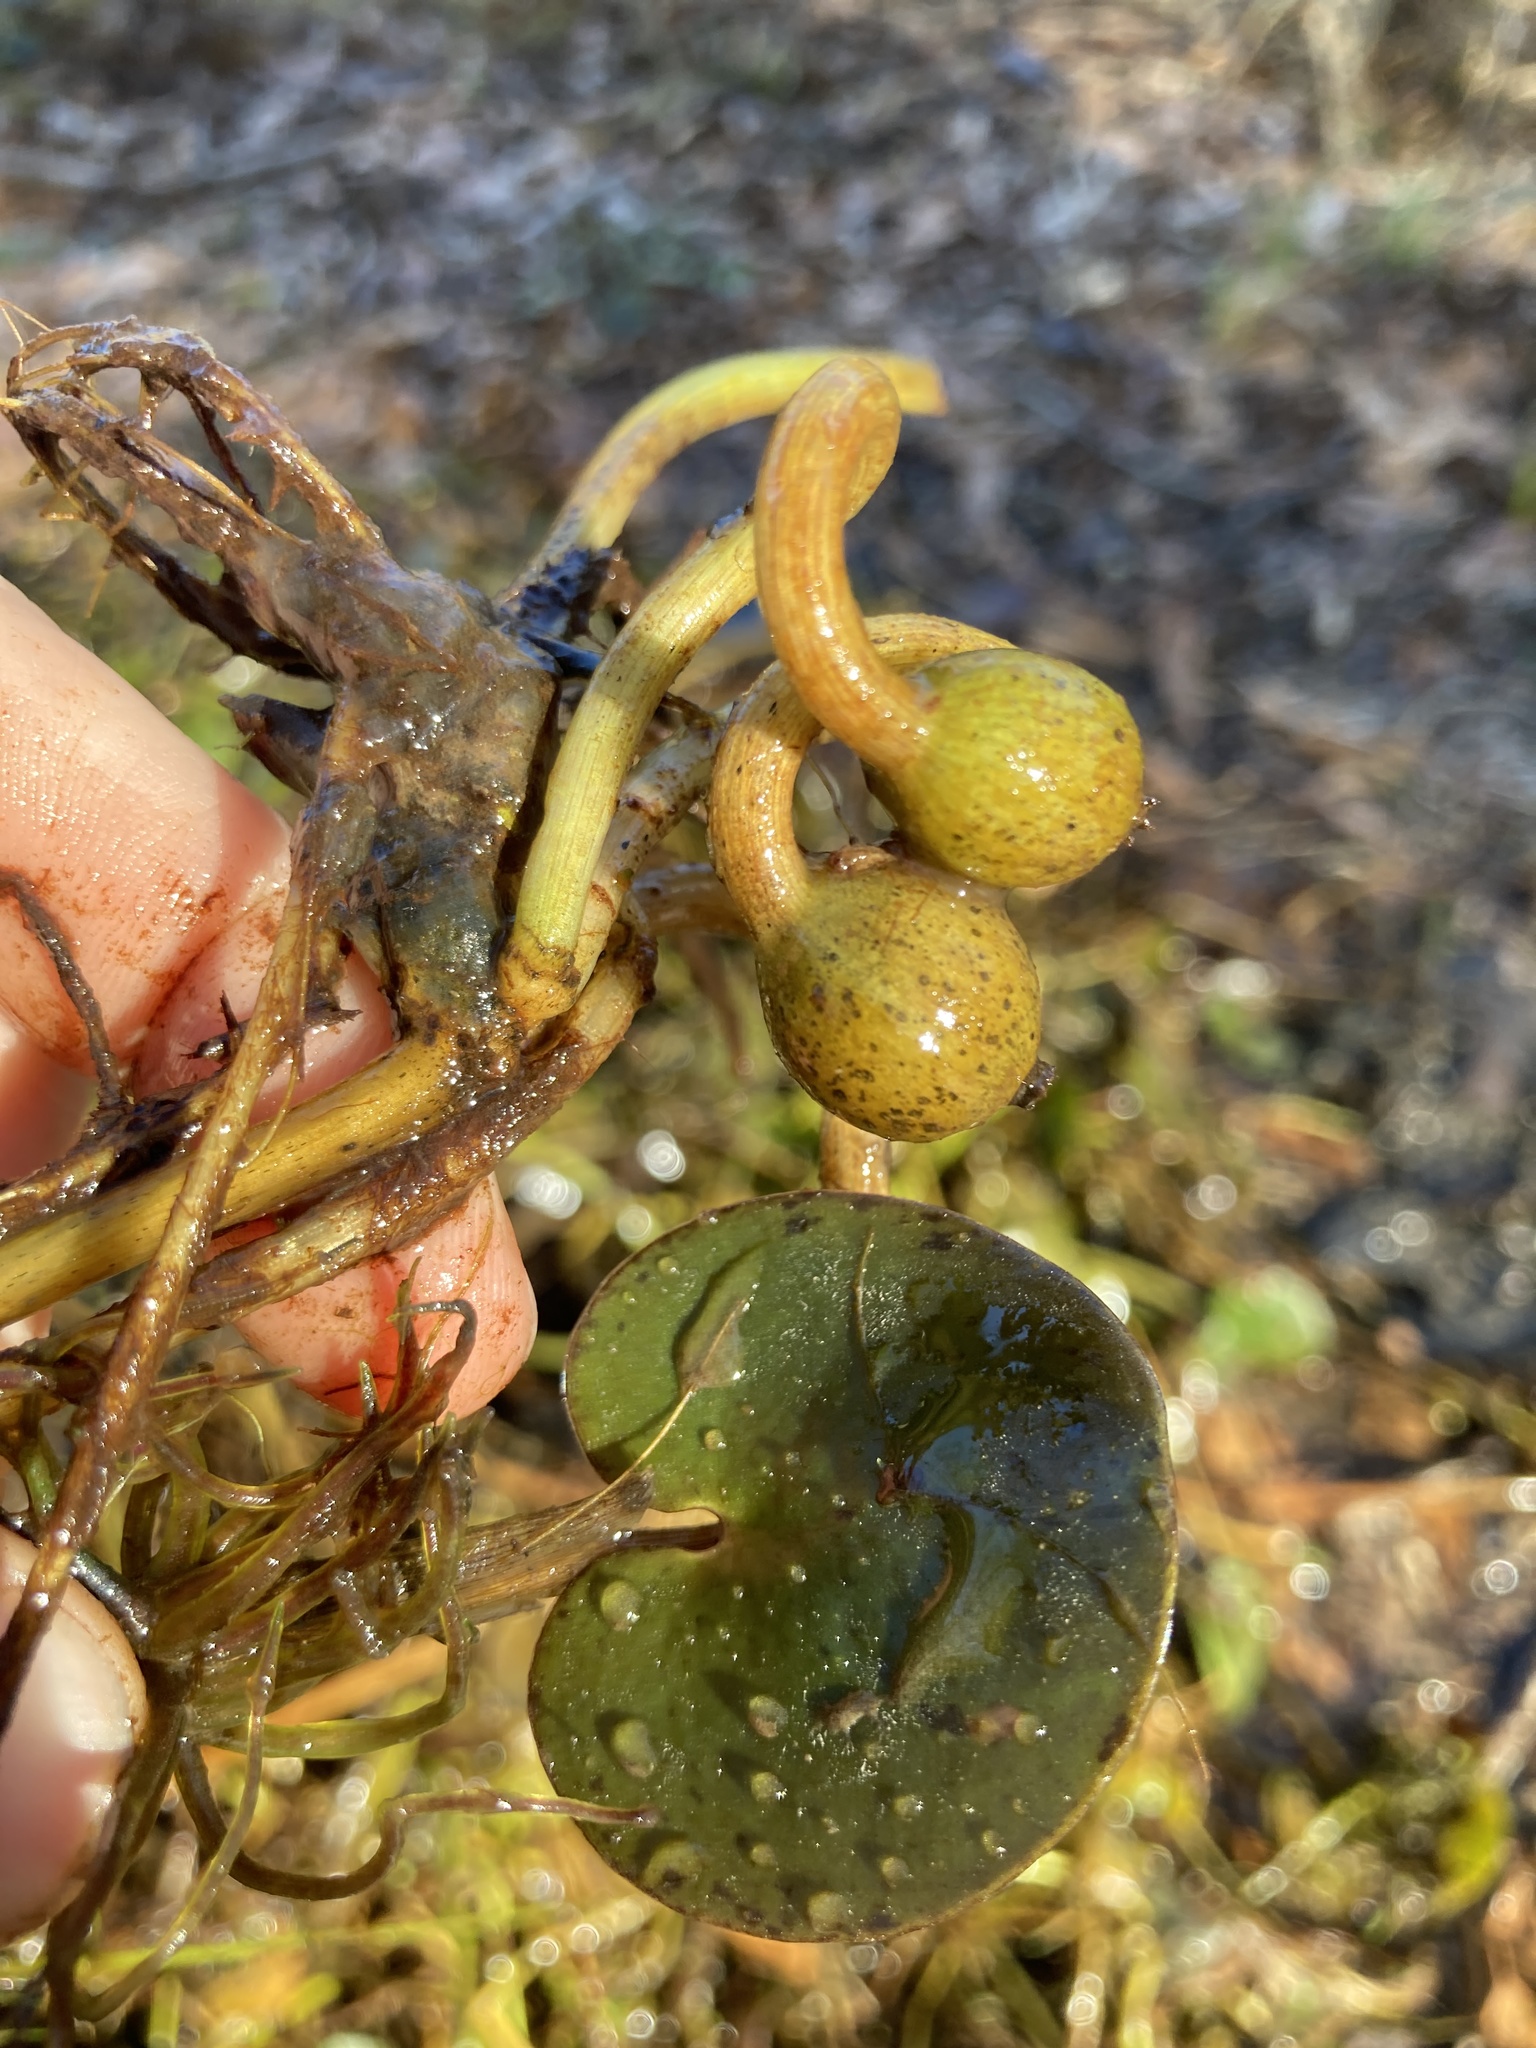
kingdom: Plantae
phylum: Tracheophyta
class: Liliopsida
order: Alismatales
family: Hydrocharitaceae
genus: Hydrocharis
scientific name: Hydrocharis spongia
